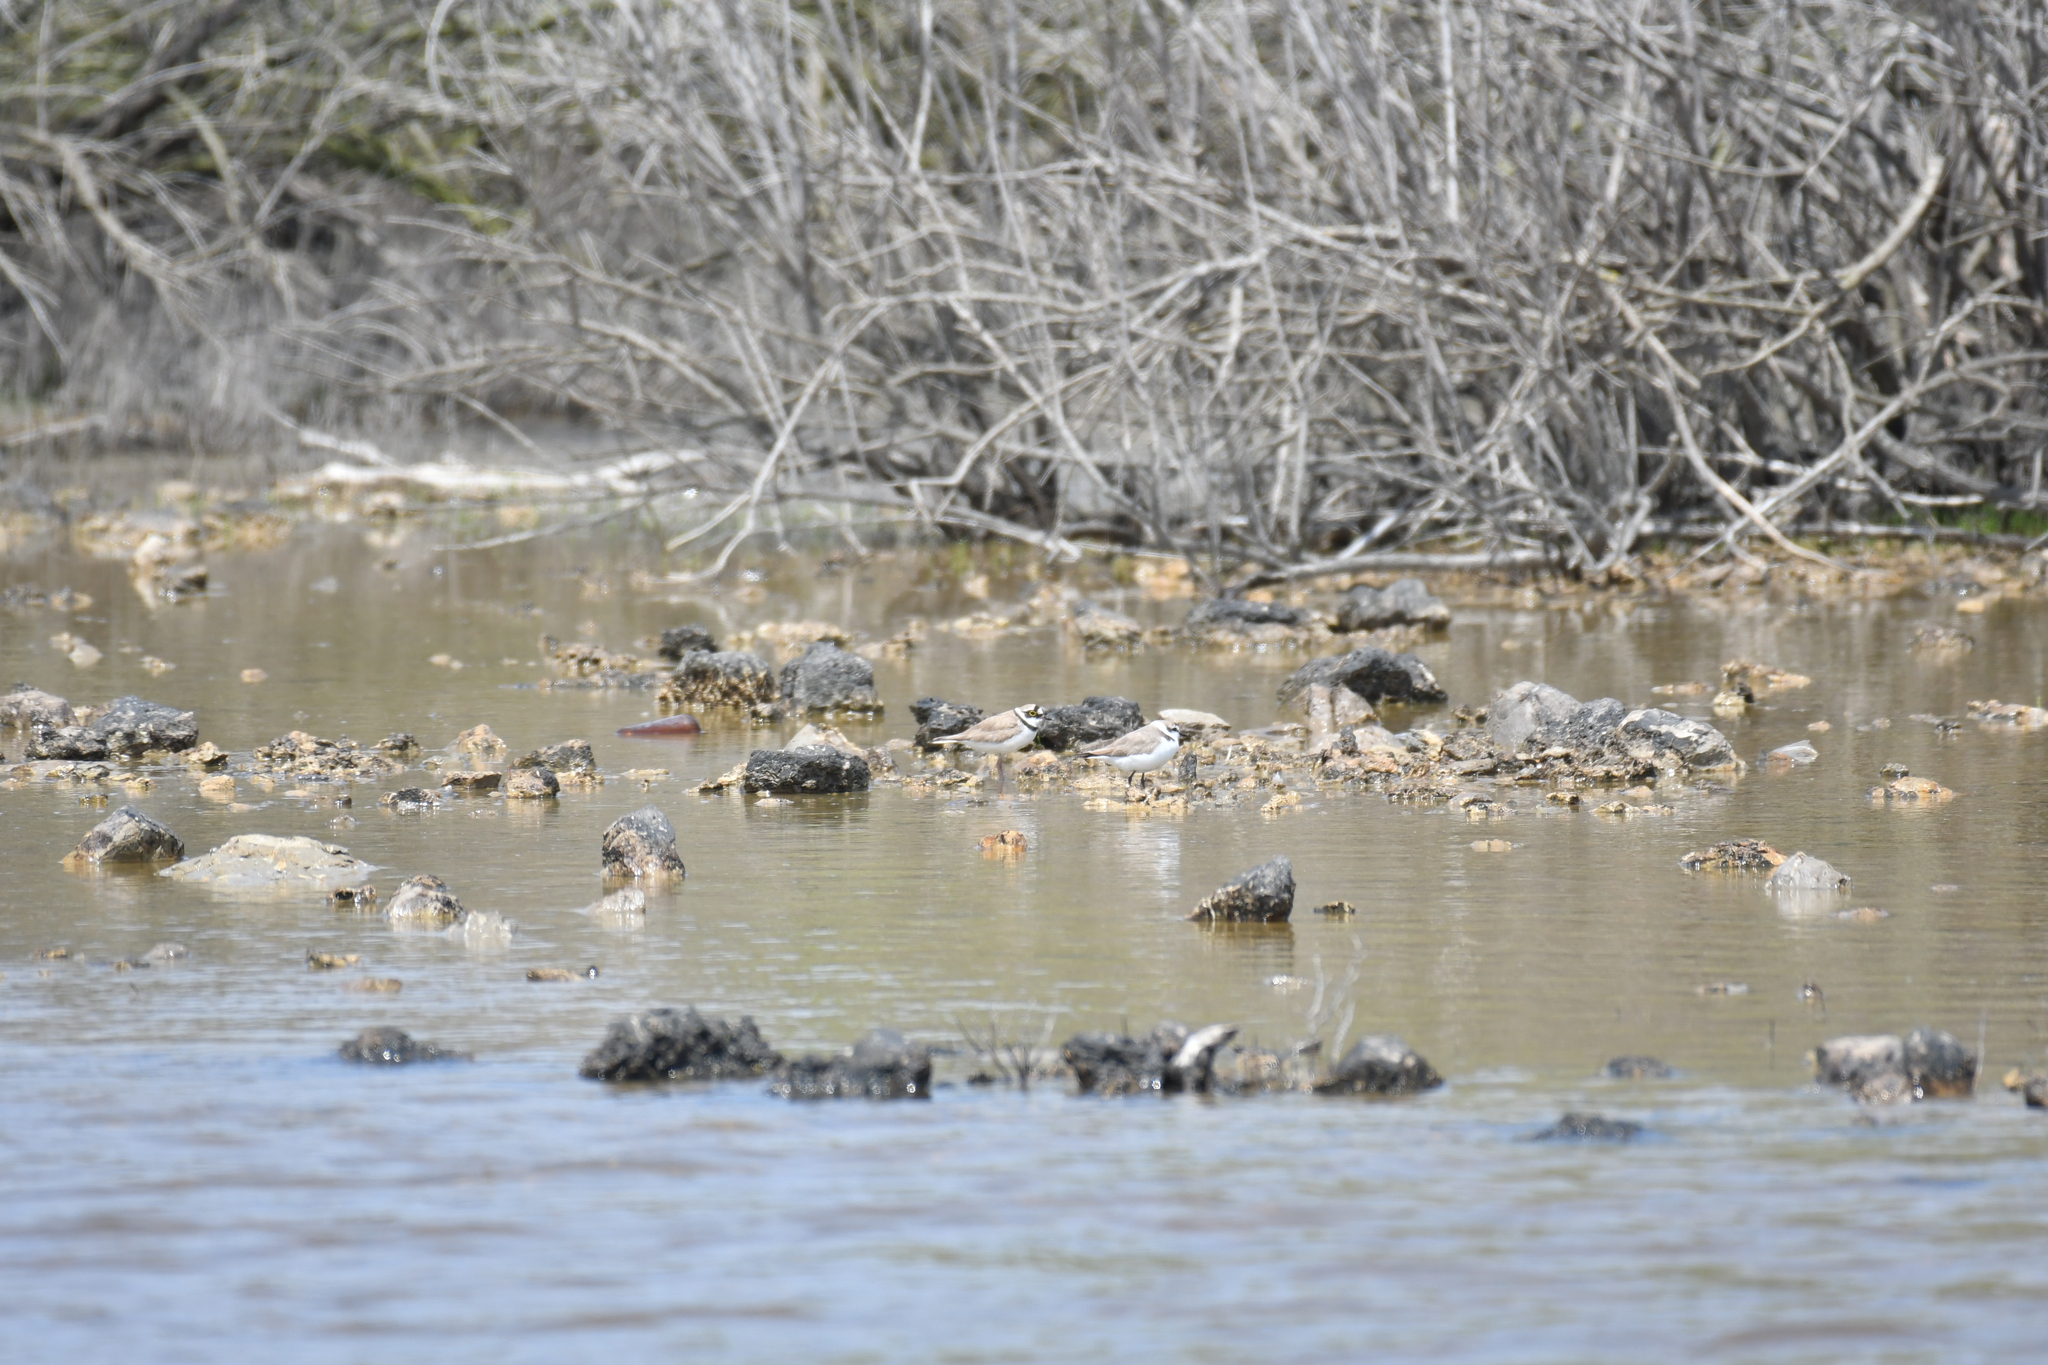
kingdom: Animalia
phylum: Chordata
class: Aves
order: Charadriiformes
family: Charadriidae
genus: Charadrius
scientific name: Charadrius dubius
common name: Little ringed plover
